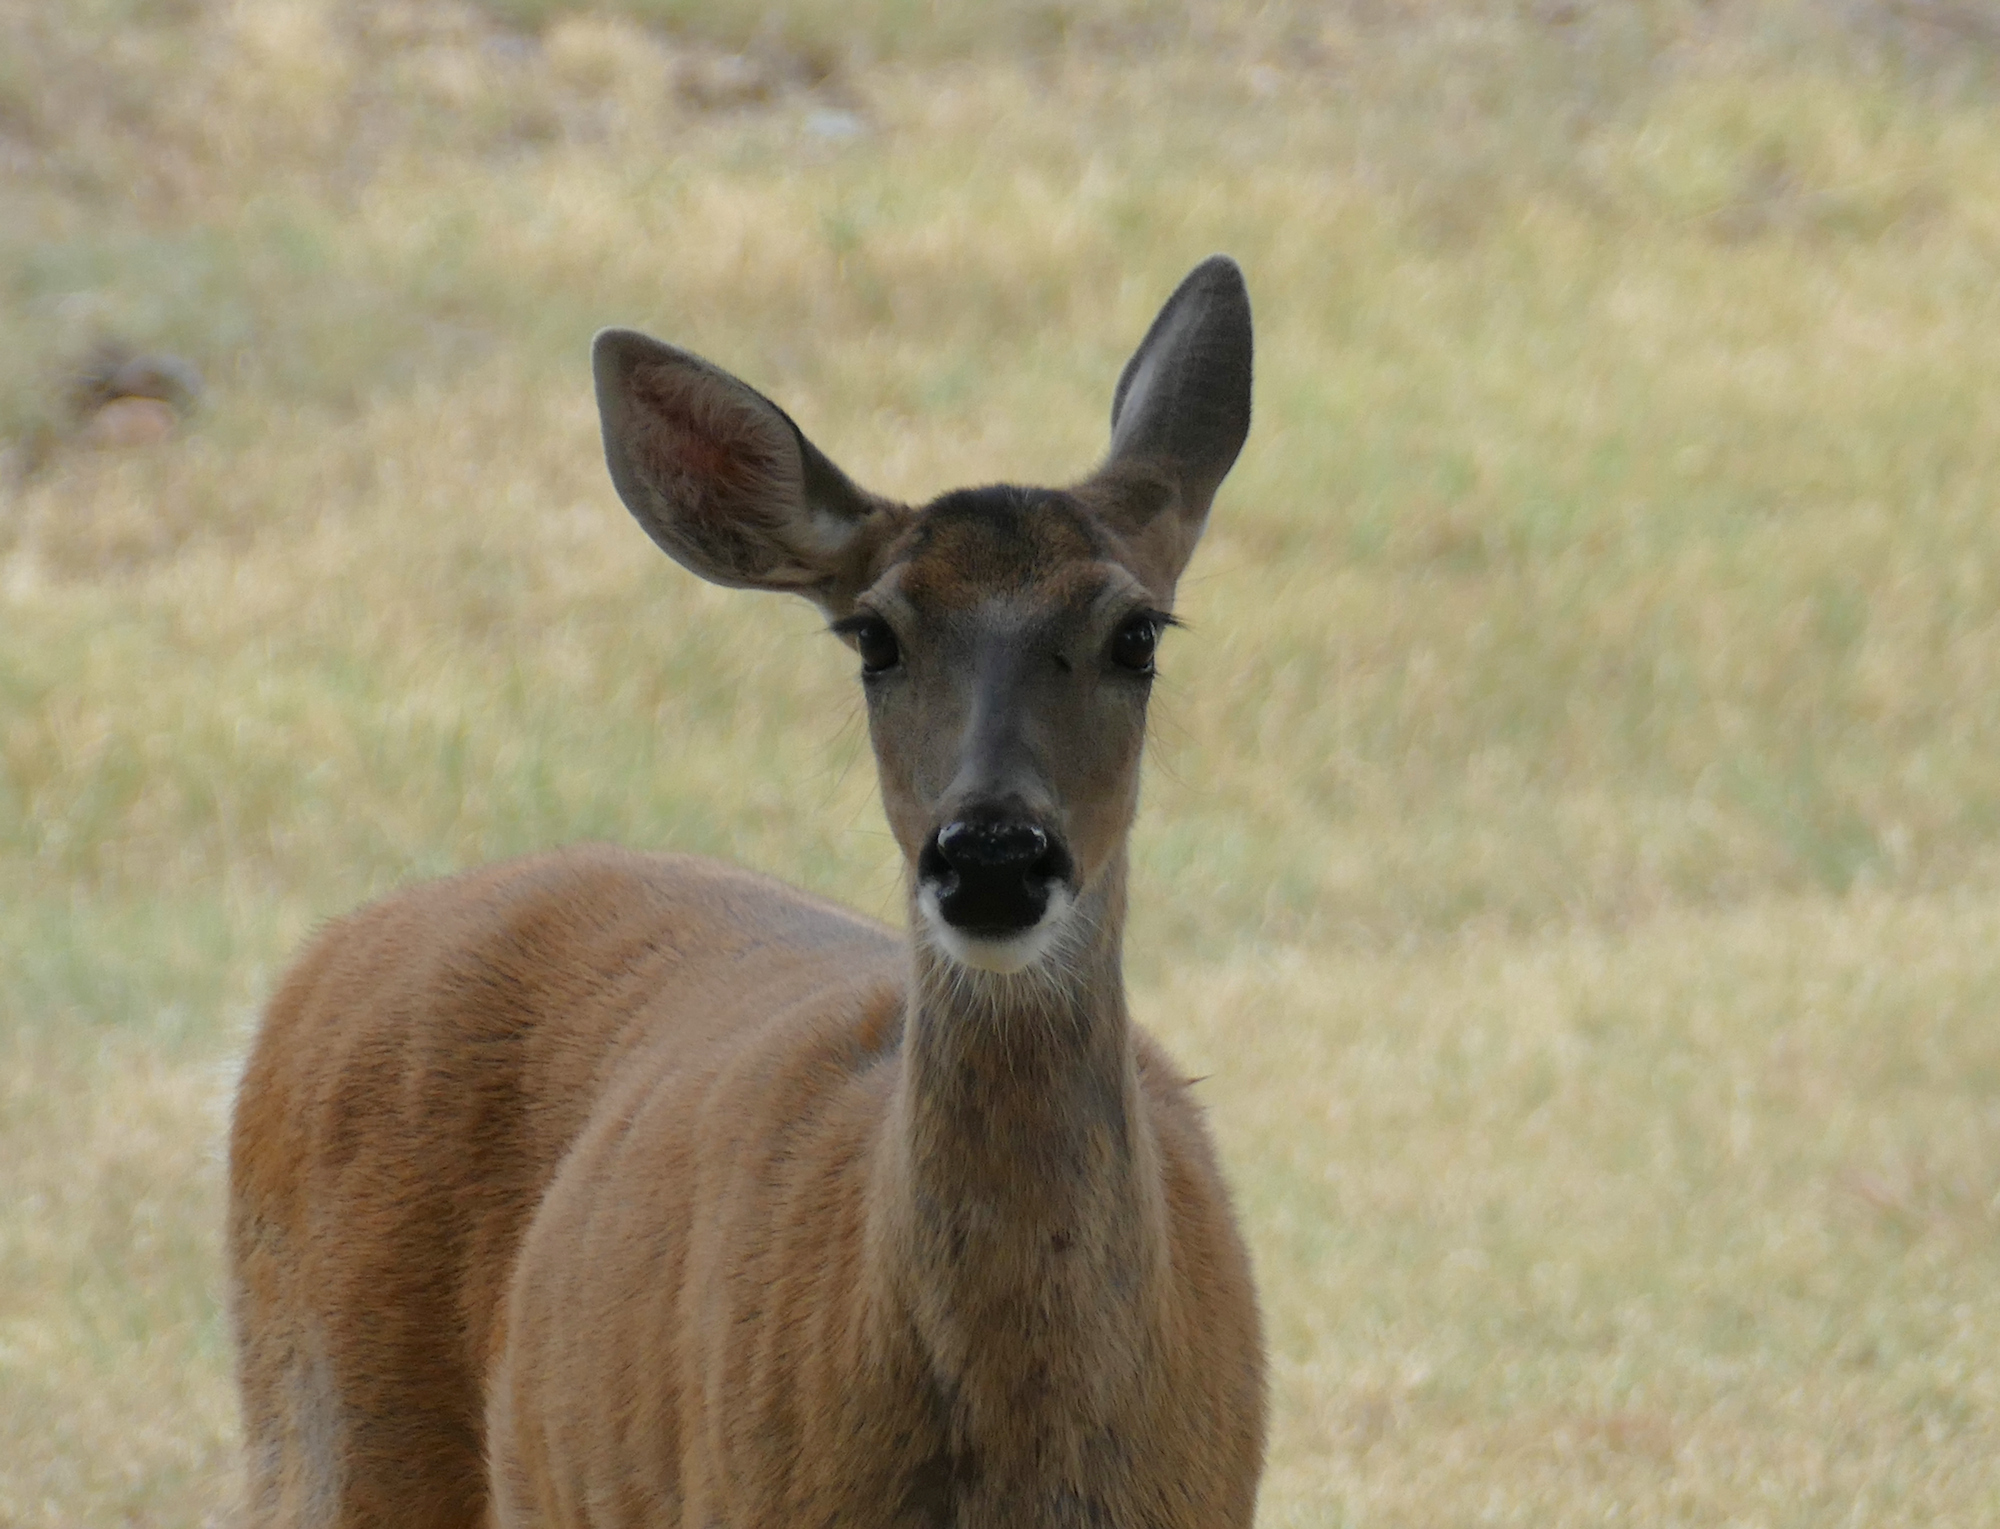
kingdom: Animalia
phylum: Chordata
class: Mammalia
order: Artiodactyla
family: Cervidae
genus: Odocoileus
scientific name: Odocoileus virginianus
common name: White-tailed deer
